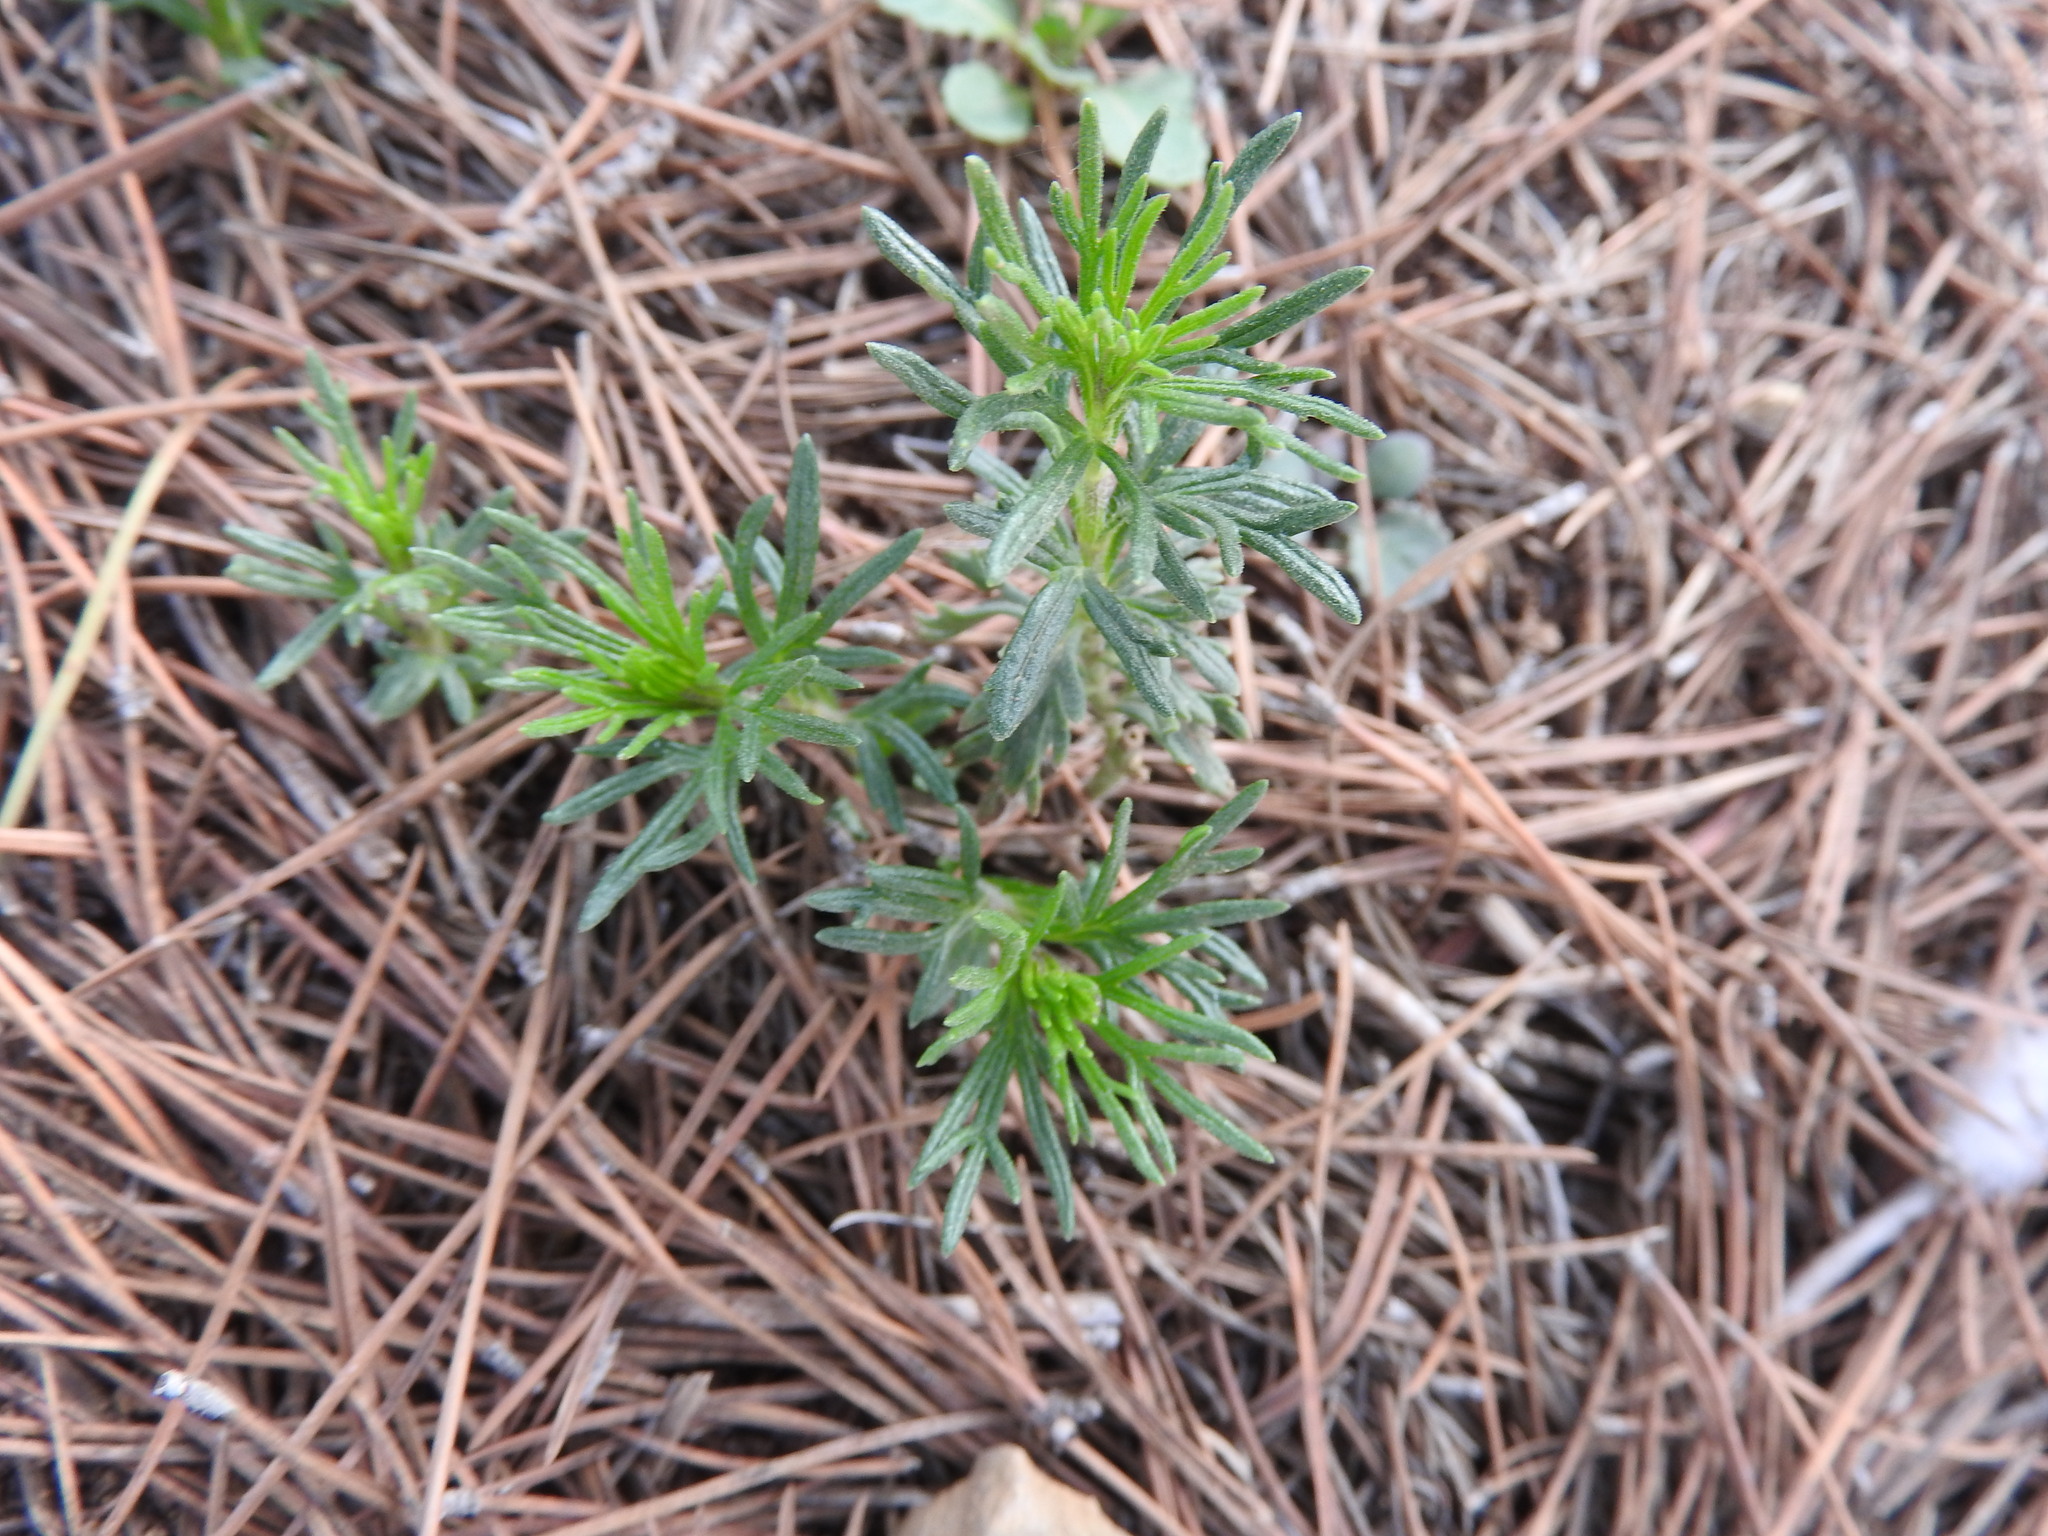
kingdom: Plantae
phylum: Tracheophyta
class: Magnoliopsida
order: Lamiales
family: Lamiaceae
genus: Teucrium
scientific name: Teucrium pseudochamaepitys
